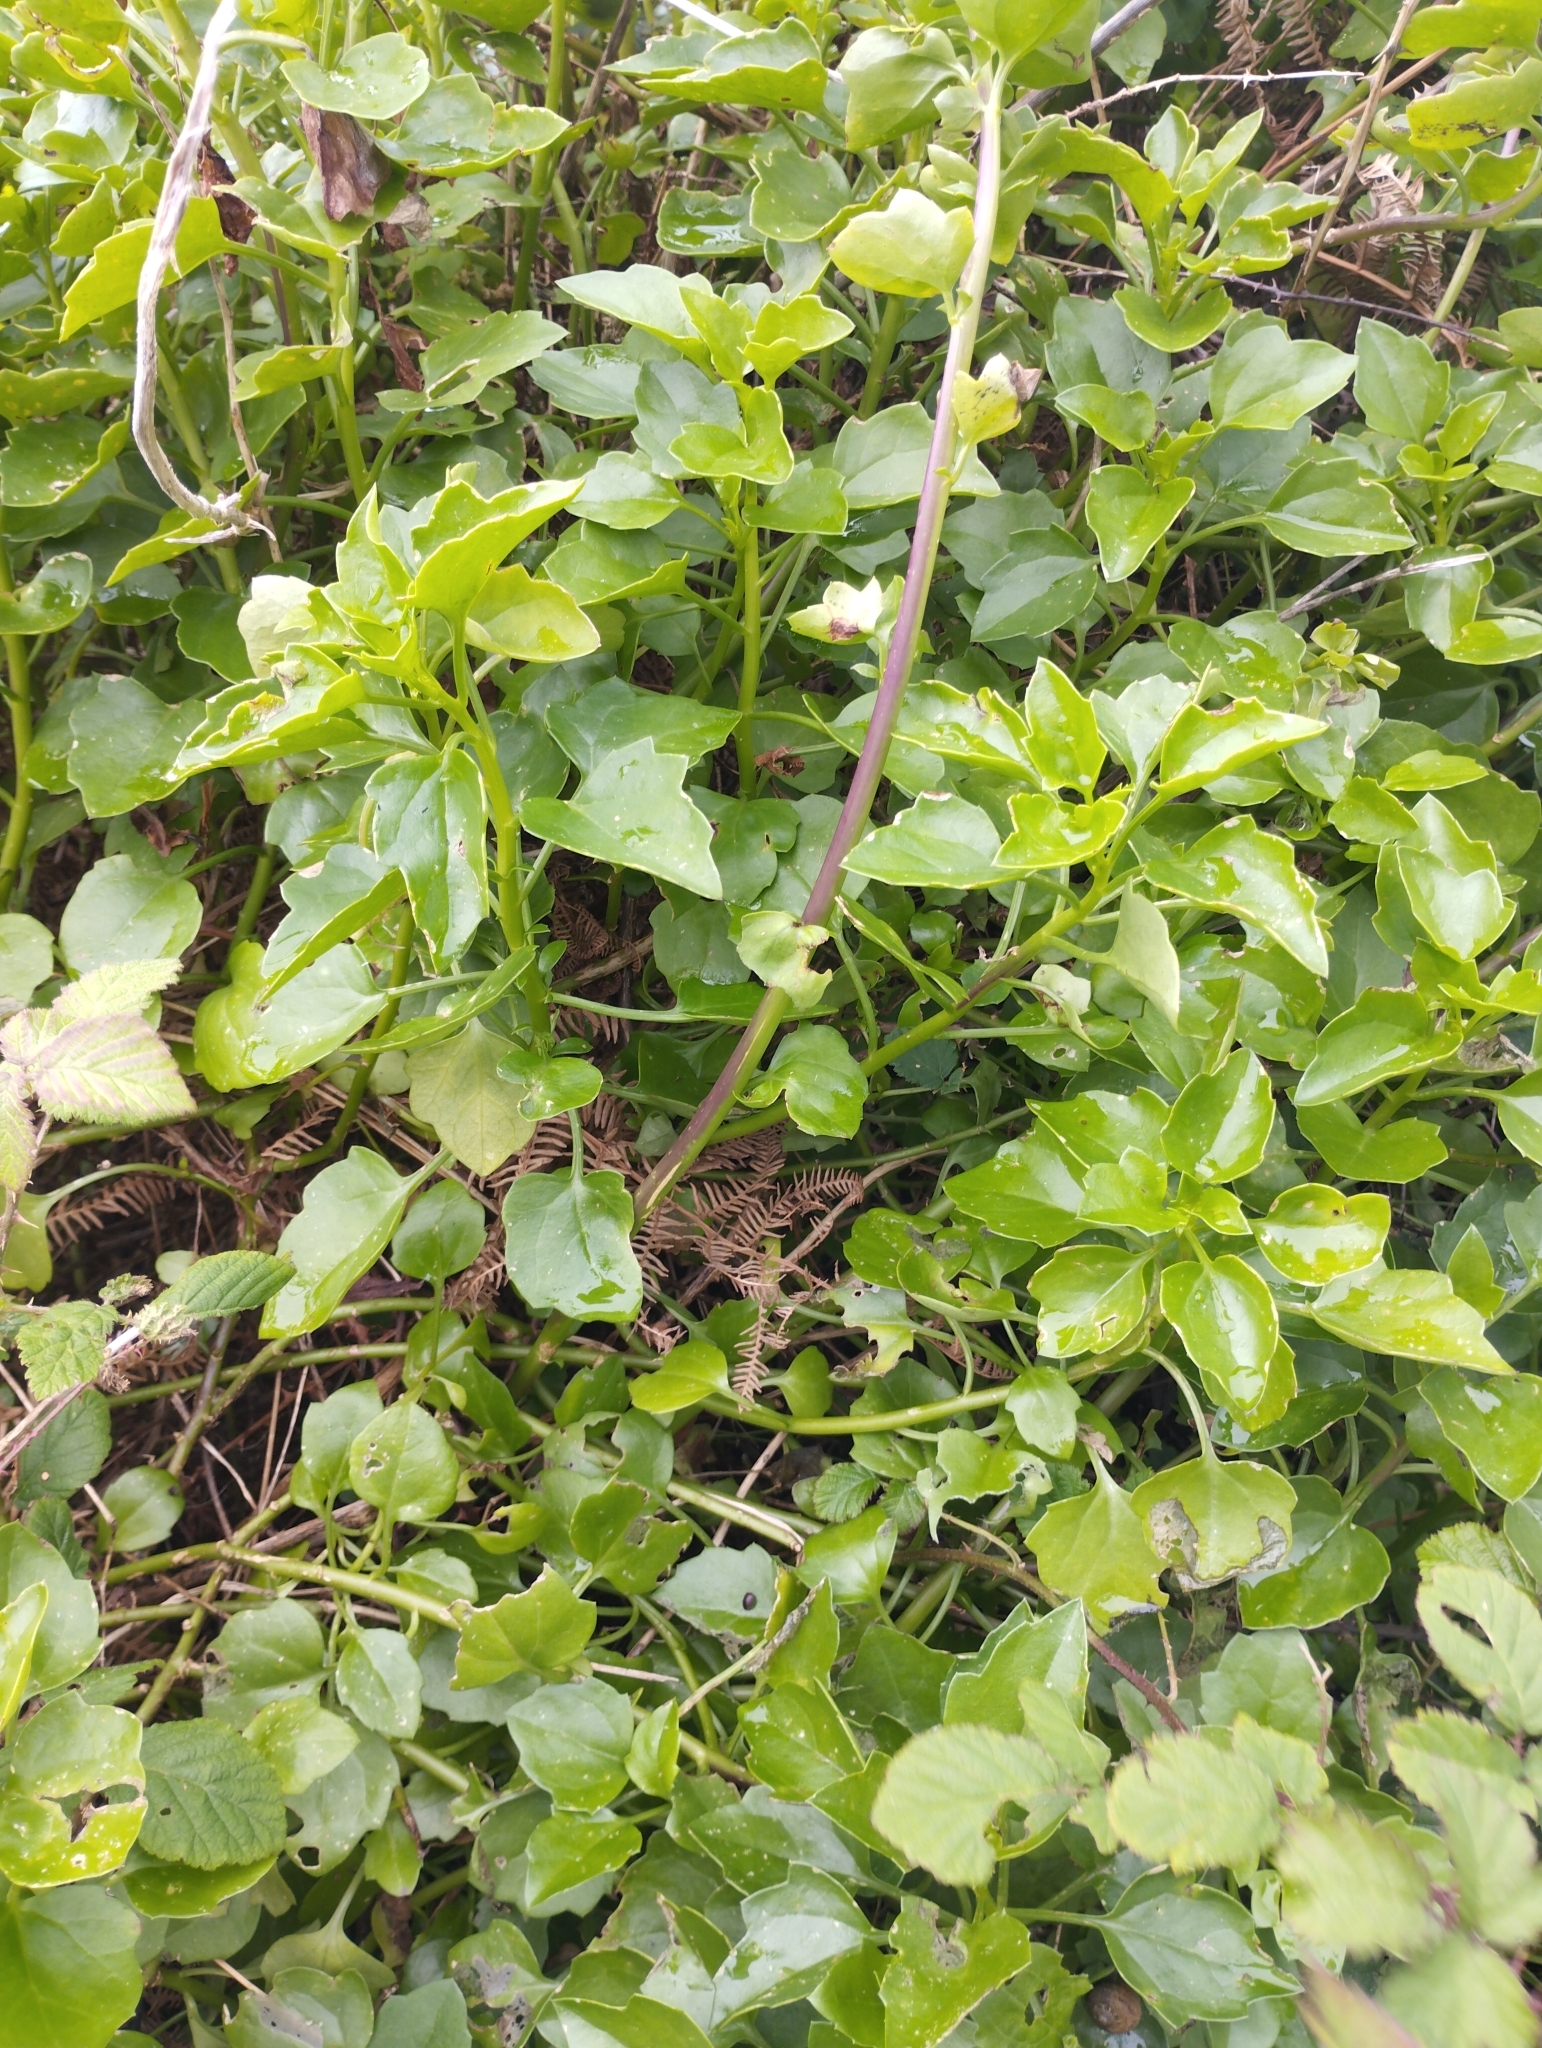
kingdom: Plantae
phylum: Tracheophyta
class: Magnoliopsida
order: Asterales
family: Asteraceae
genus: Senecio
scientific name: Senecio angulatus
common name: Climbing groundsel
